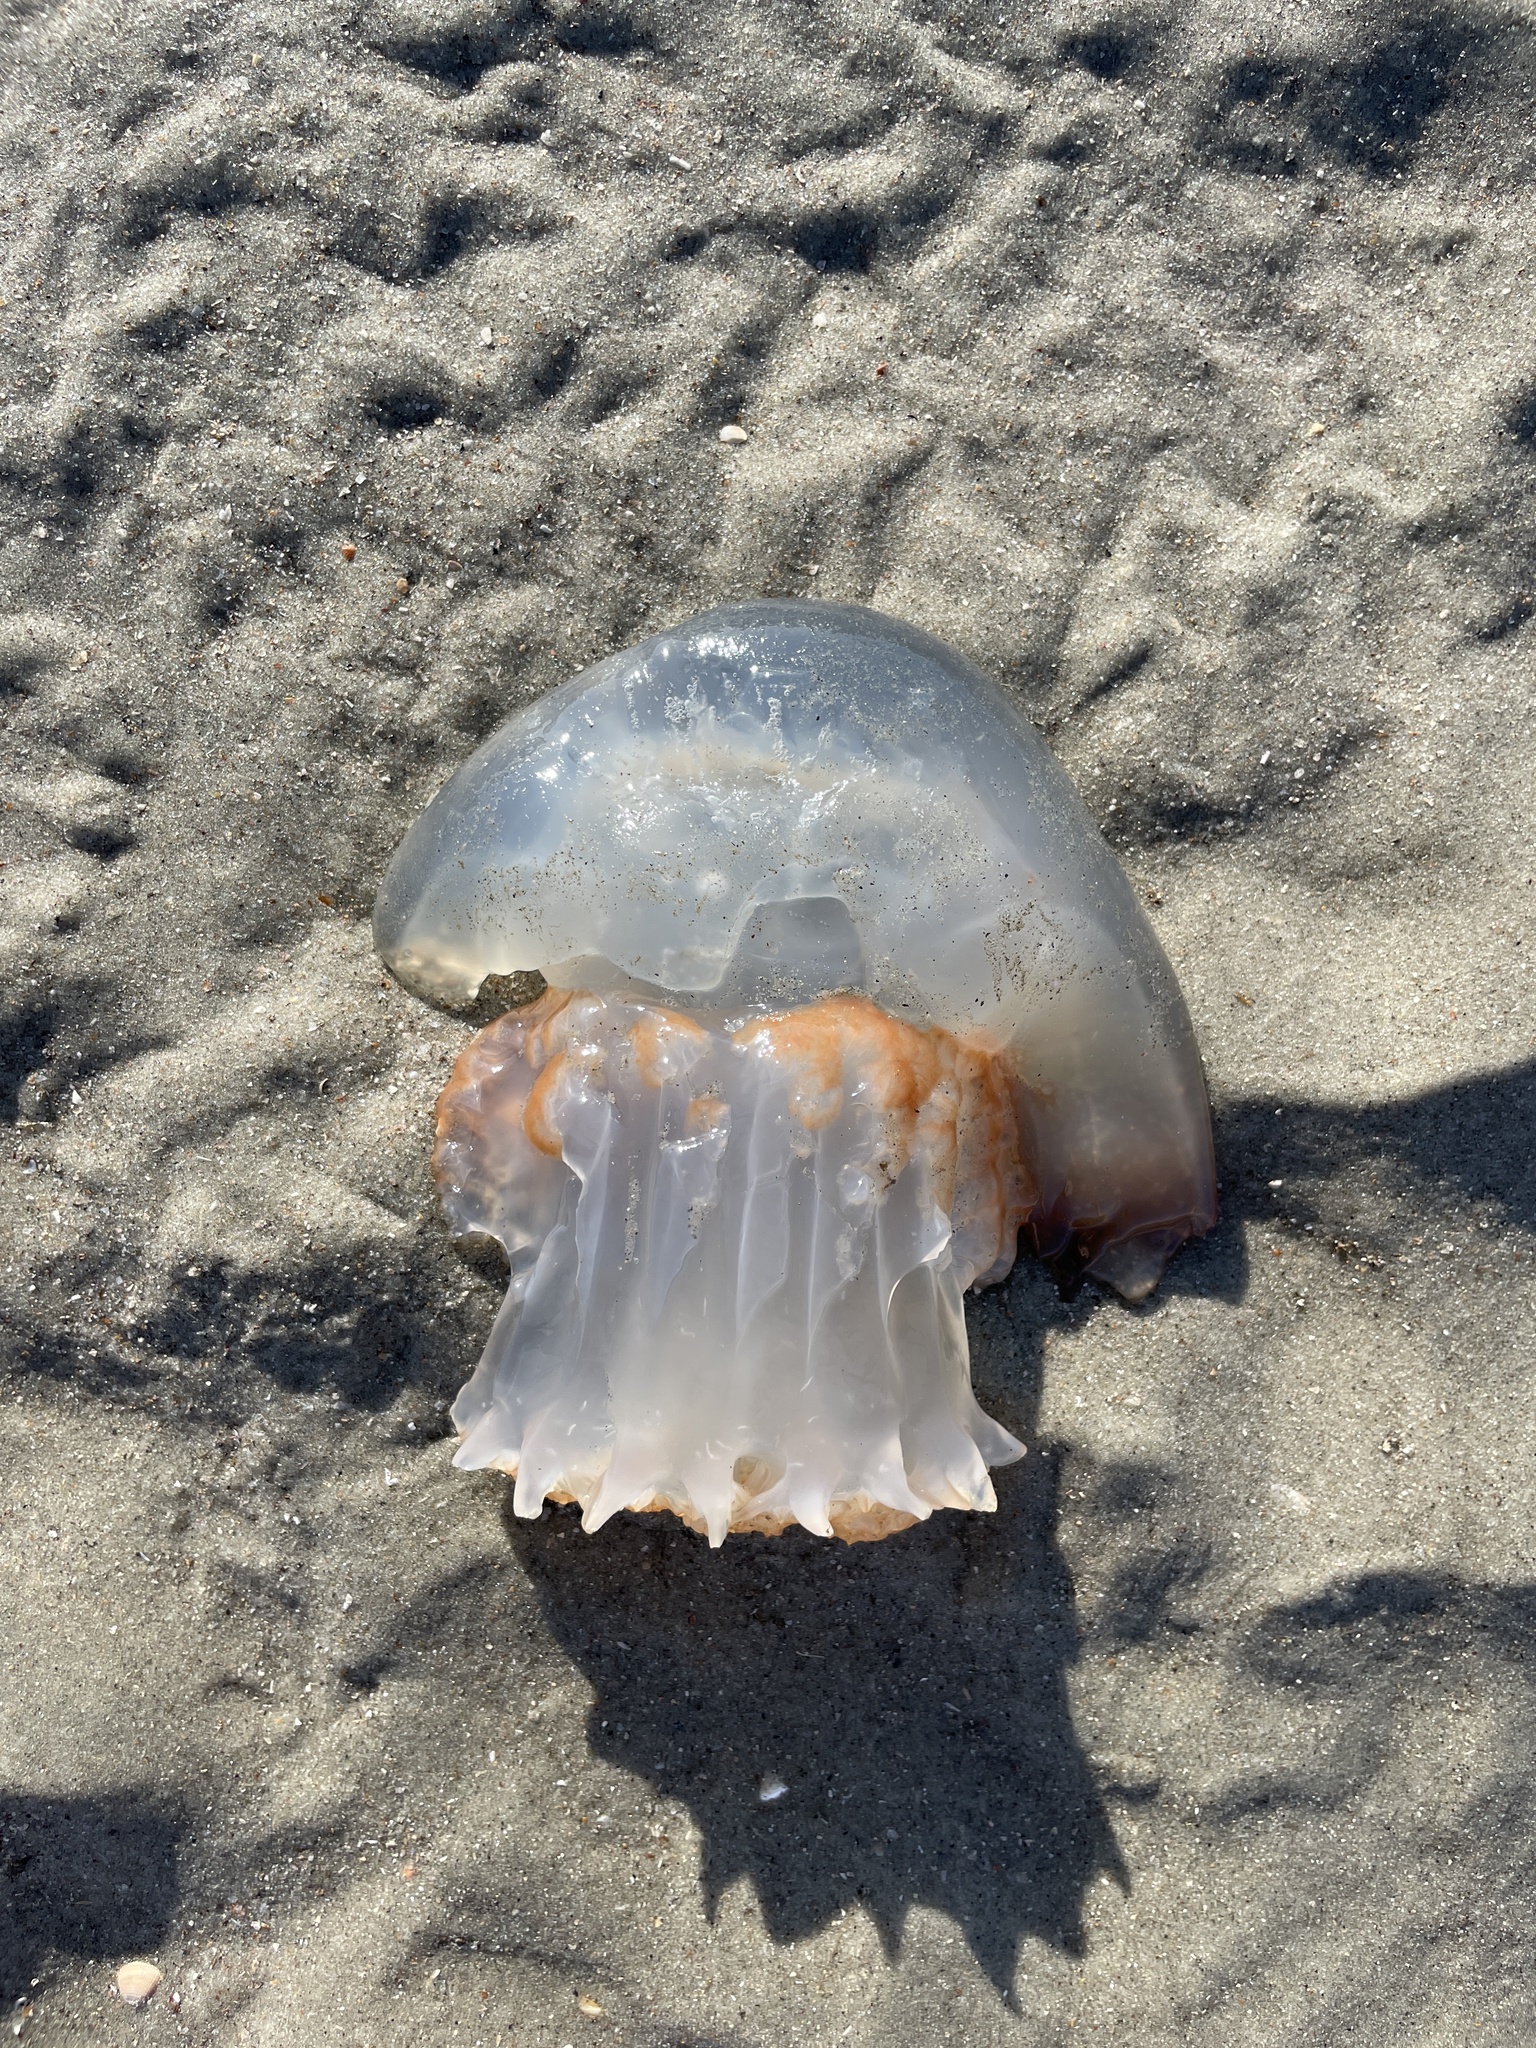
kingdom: Animalia
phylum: Cnidaria
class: Scyphozoa
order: Rhizostomeae
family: Stomolophidae
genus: Stomolophus
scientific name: Stomolophus meleagris
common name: Cabbagehead
